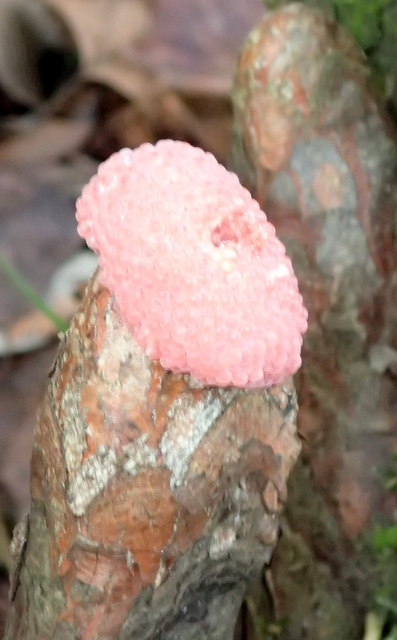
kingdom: Animalia
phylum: Mollusca
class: Gastropoda
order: Architaenioglossa
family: Ampullariidae
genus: Pomacea
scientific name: Pomacea maculata
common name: Giant applesnail
